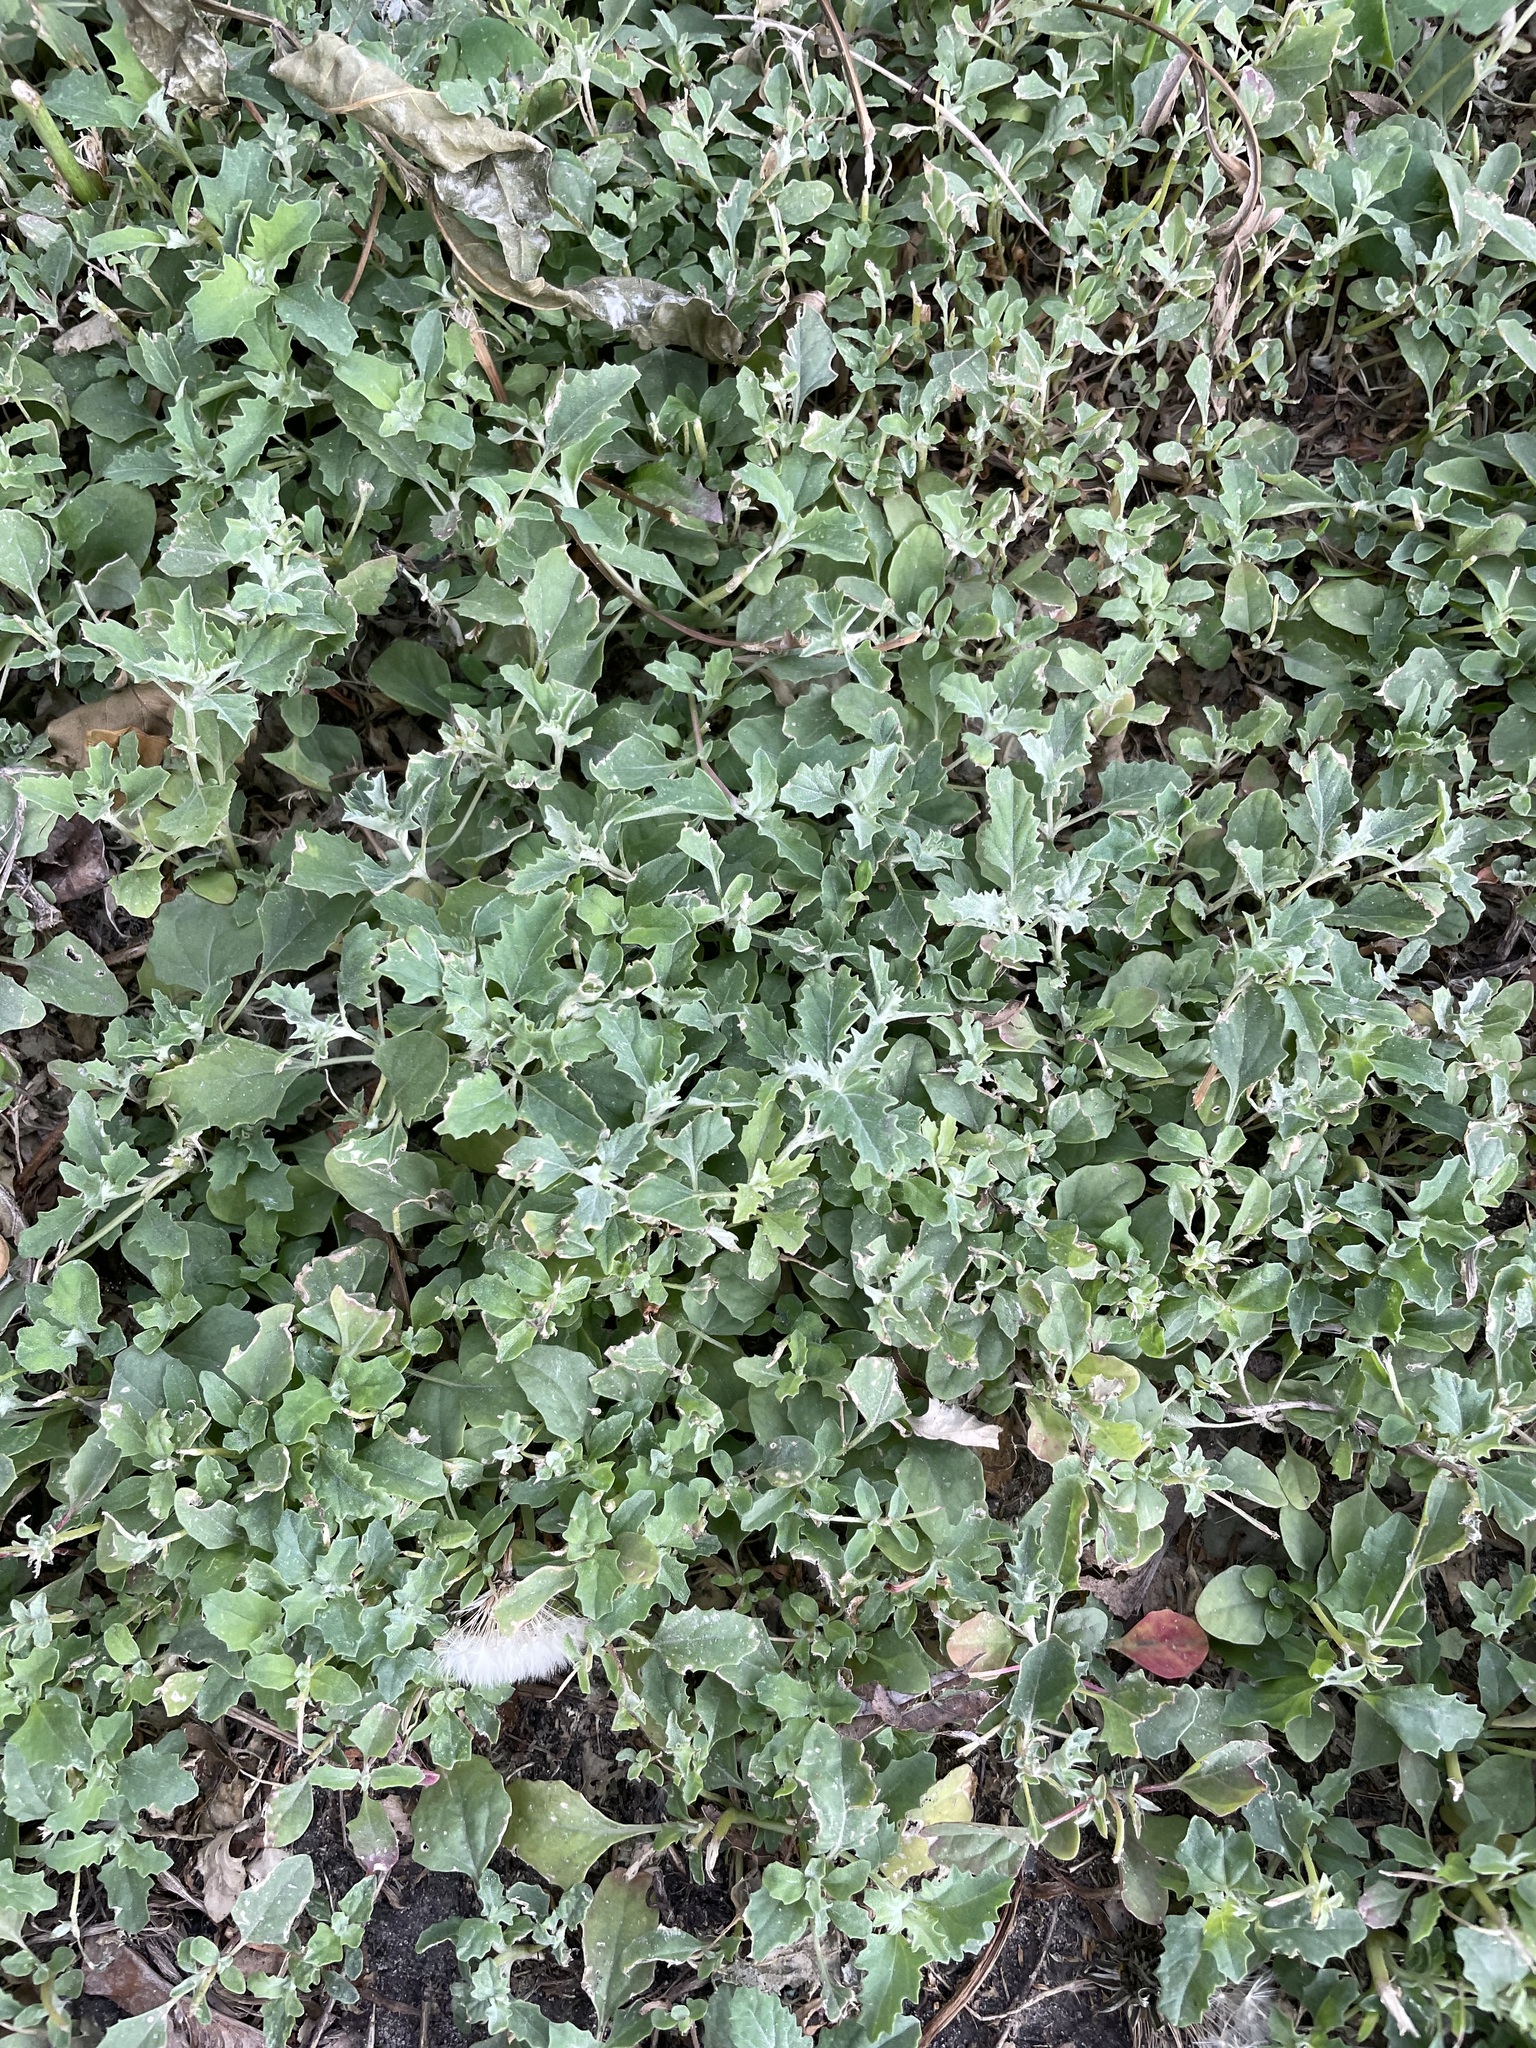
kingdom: Plantae
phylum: Tracheophyta
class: Magnoliopsida
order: Caryophyllales
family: Amaranthaceae
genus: Atriplex
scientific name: Atriplex tatarica
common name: Tatarian orache
